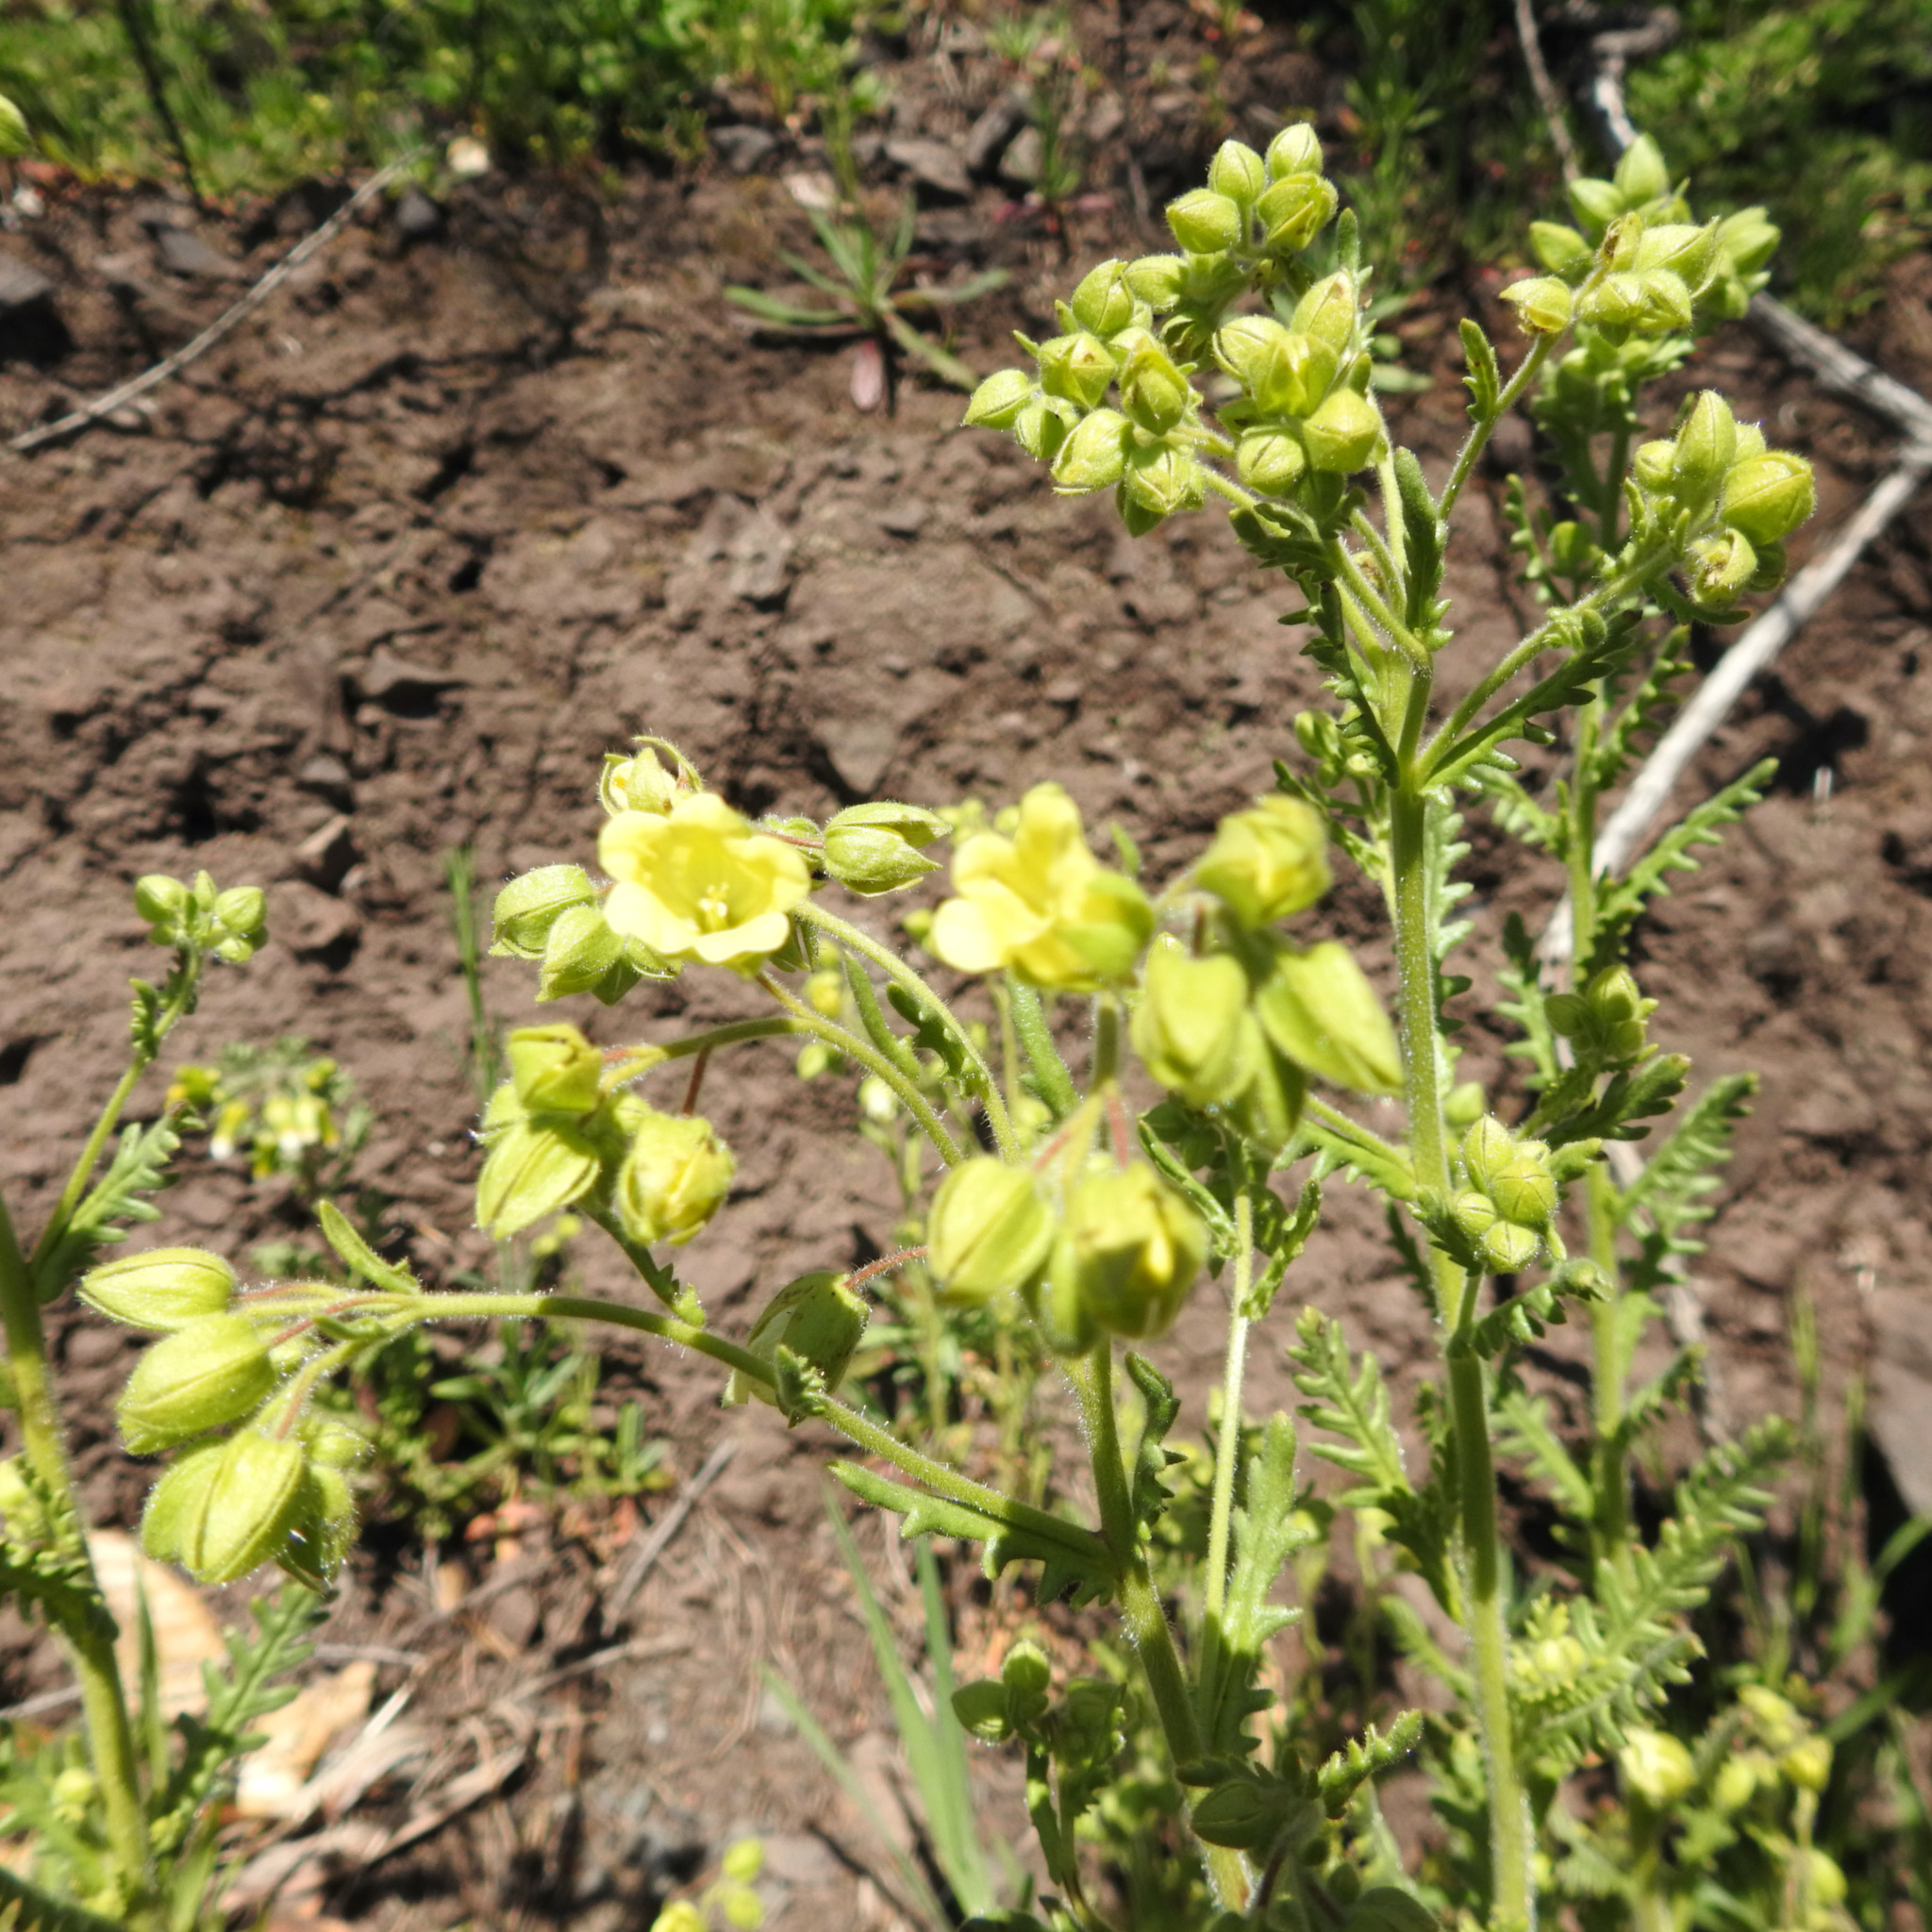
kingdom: Plantae
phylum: Tracheophyta
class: Magnoliopsida
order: Boraginales
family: Hydrophyllaceae
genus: Emmenanthe
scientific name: Emmenanthe penduliflora
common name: Whispering-bells
